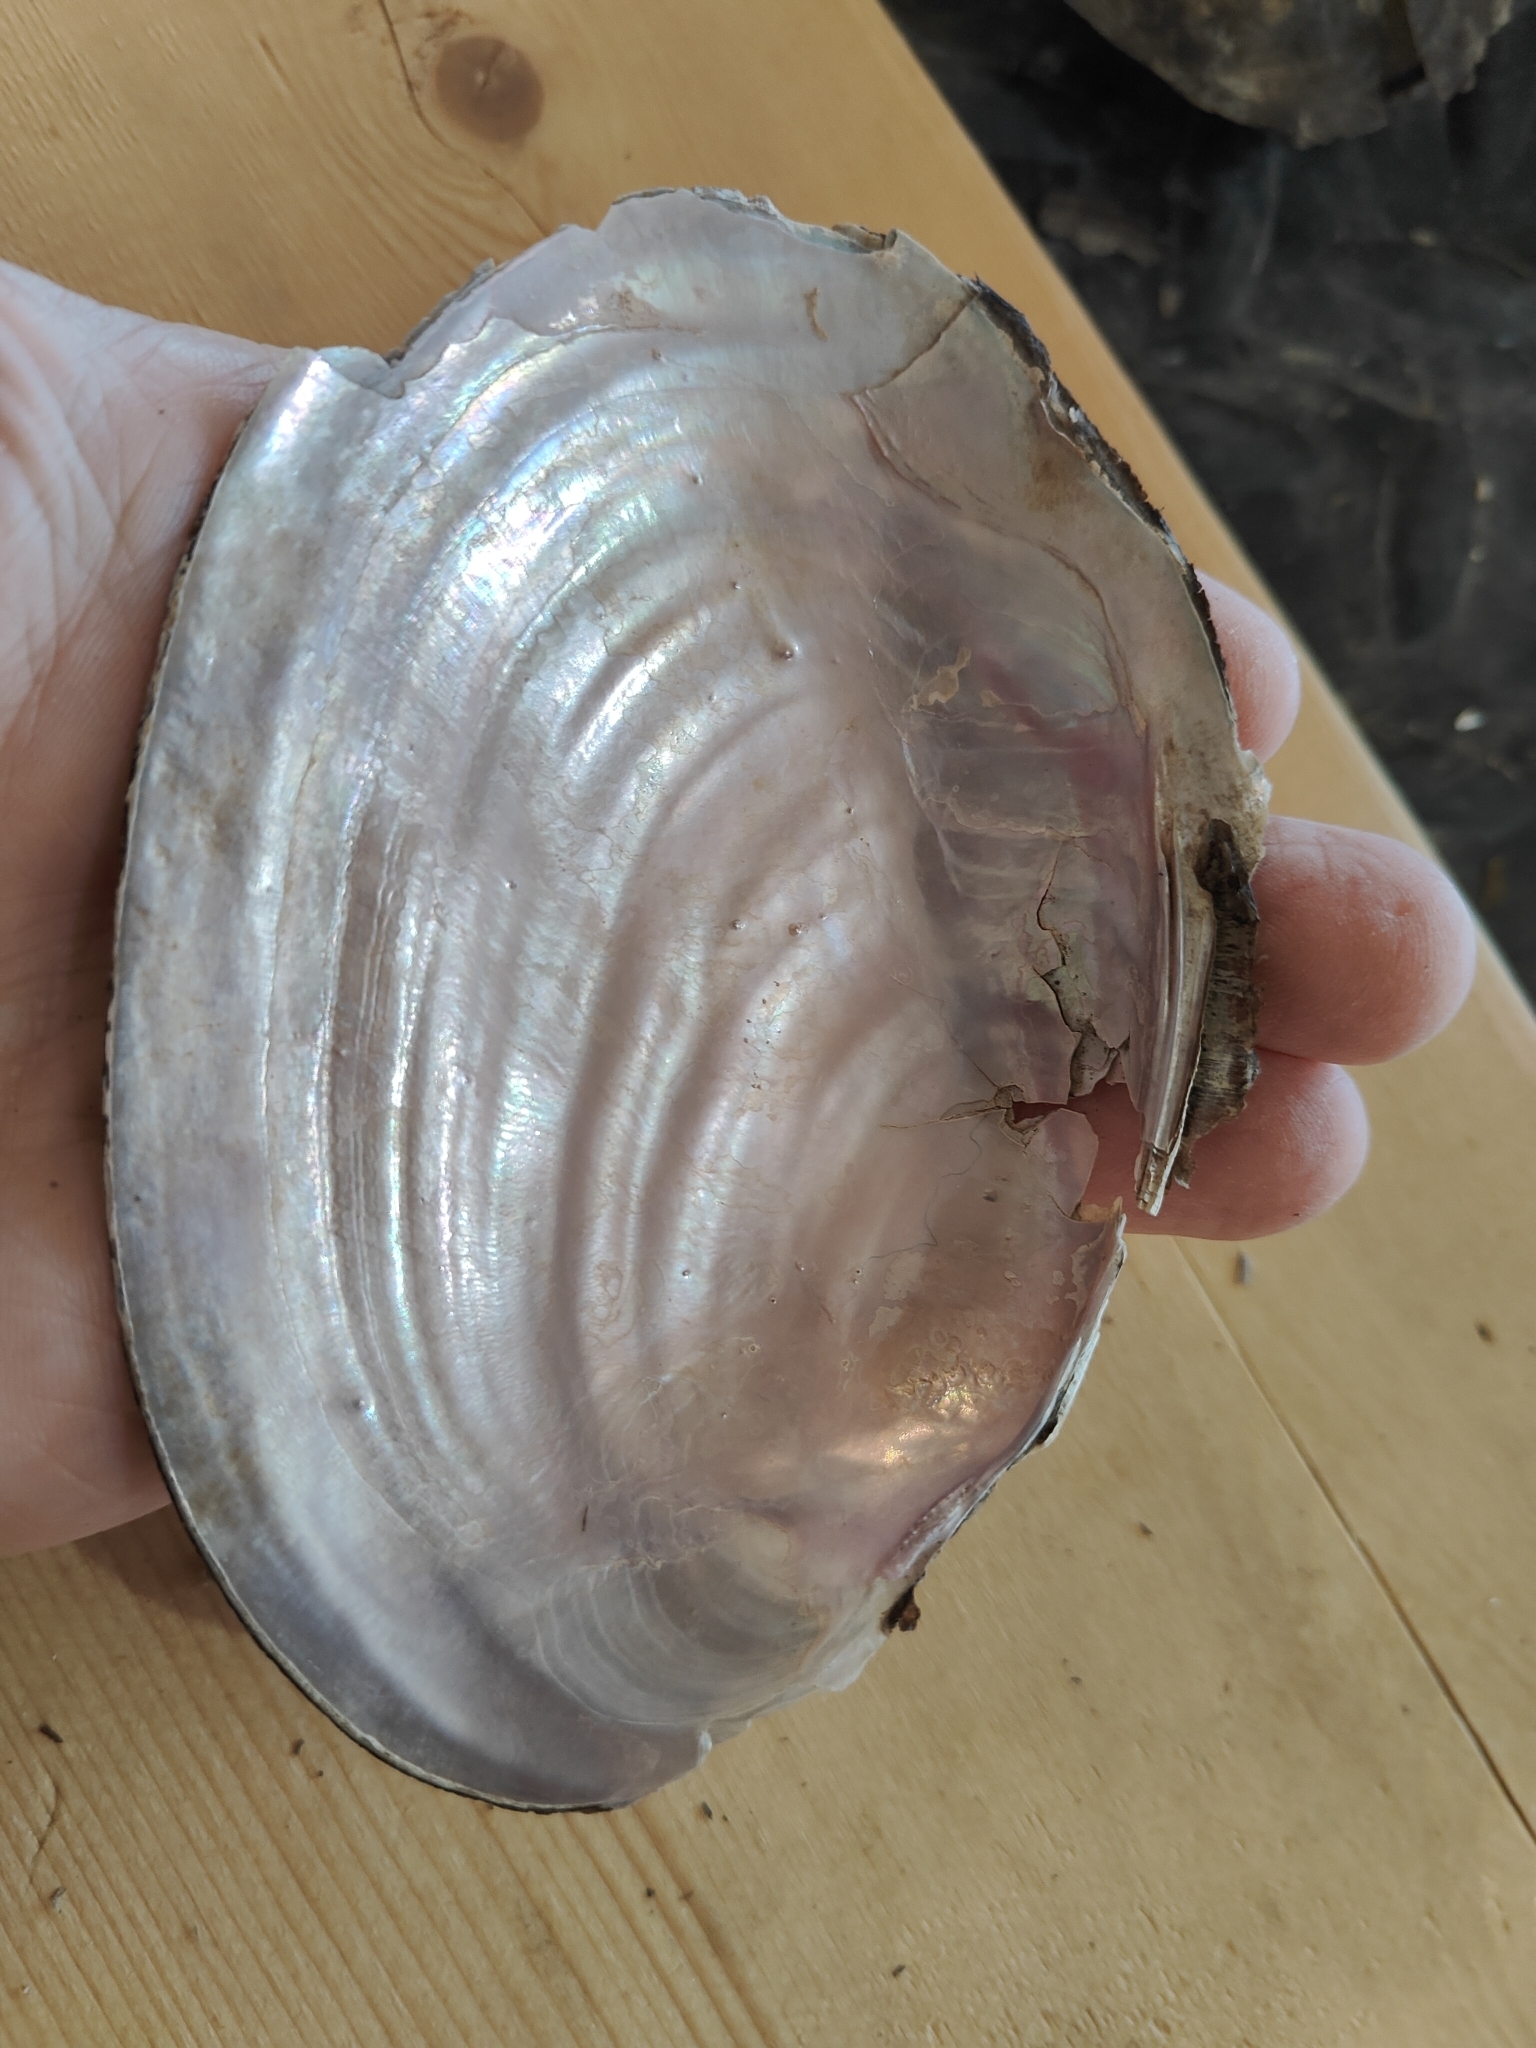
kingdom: Animalia
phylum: Mollusca
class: Bivalvia
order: Unionida
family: Unionidae
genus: Potamilus
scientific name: Potamilus ohiensis
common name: Pink papershell
